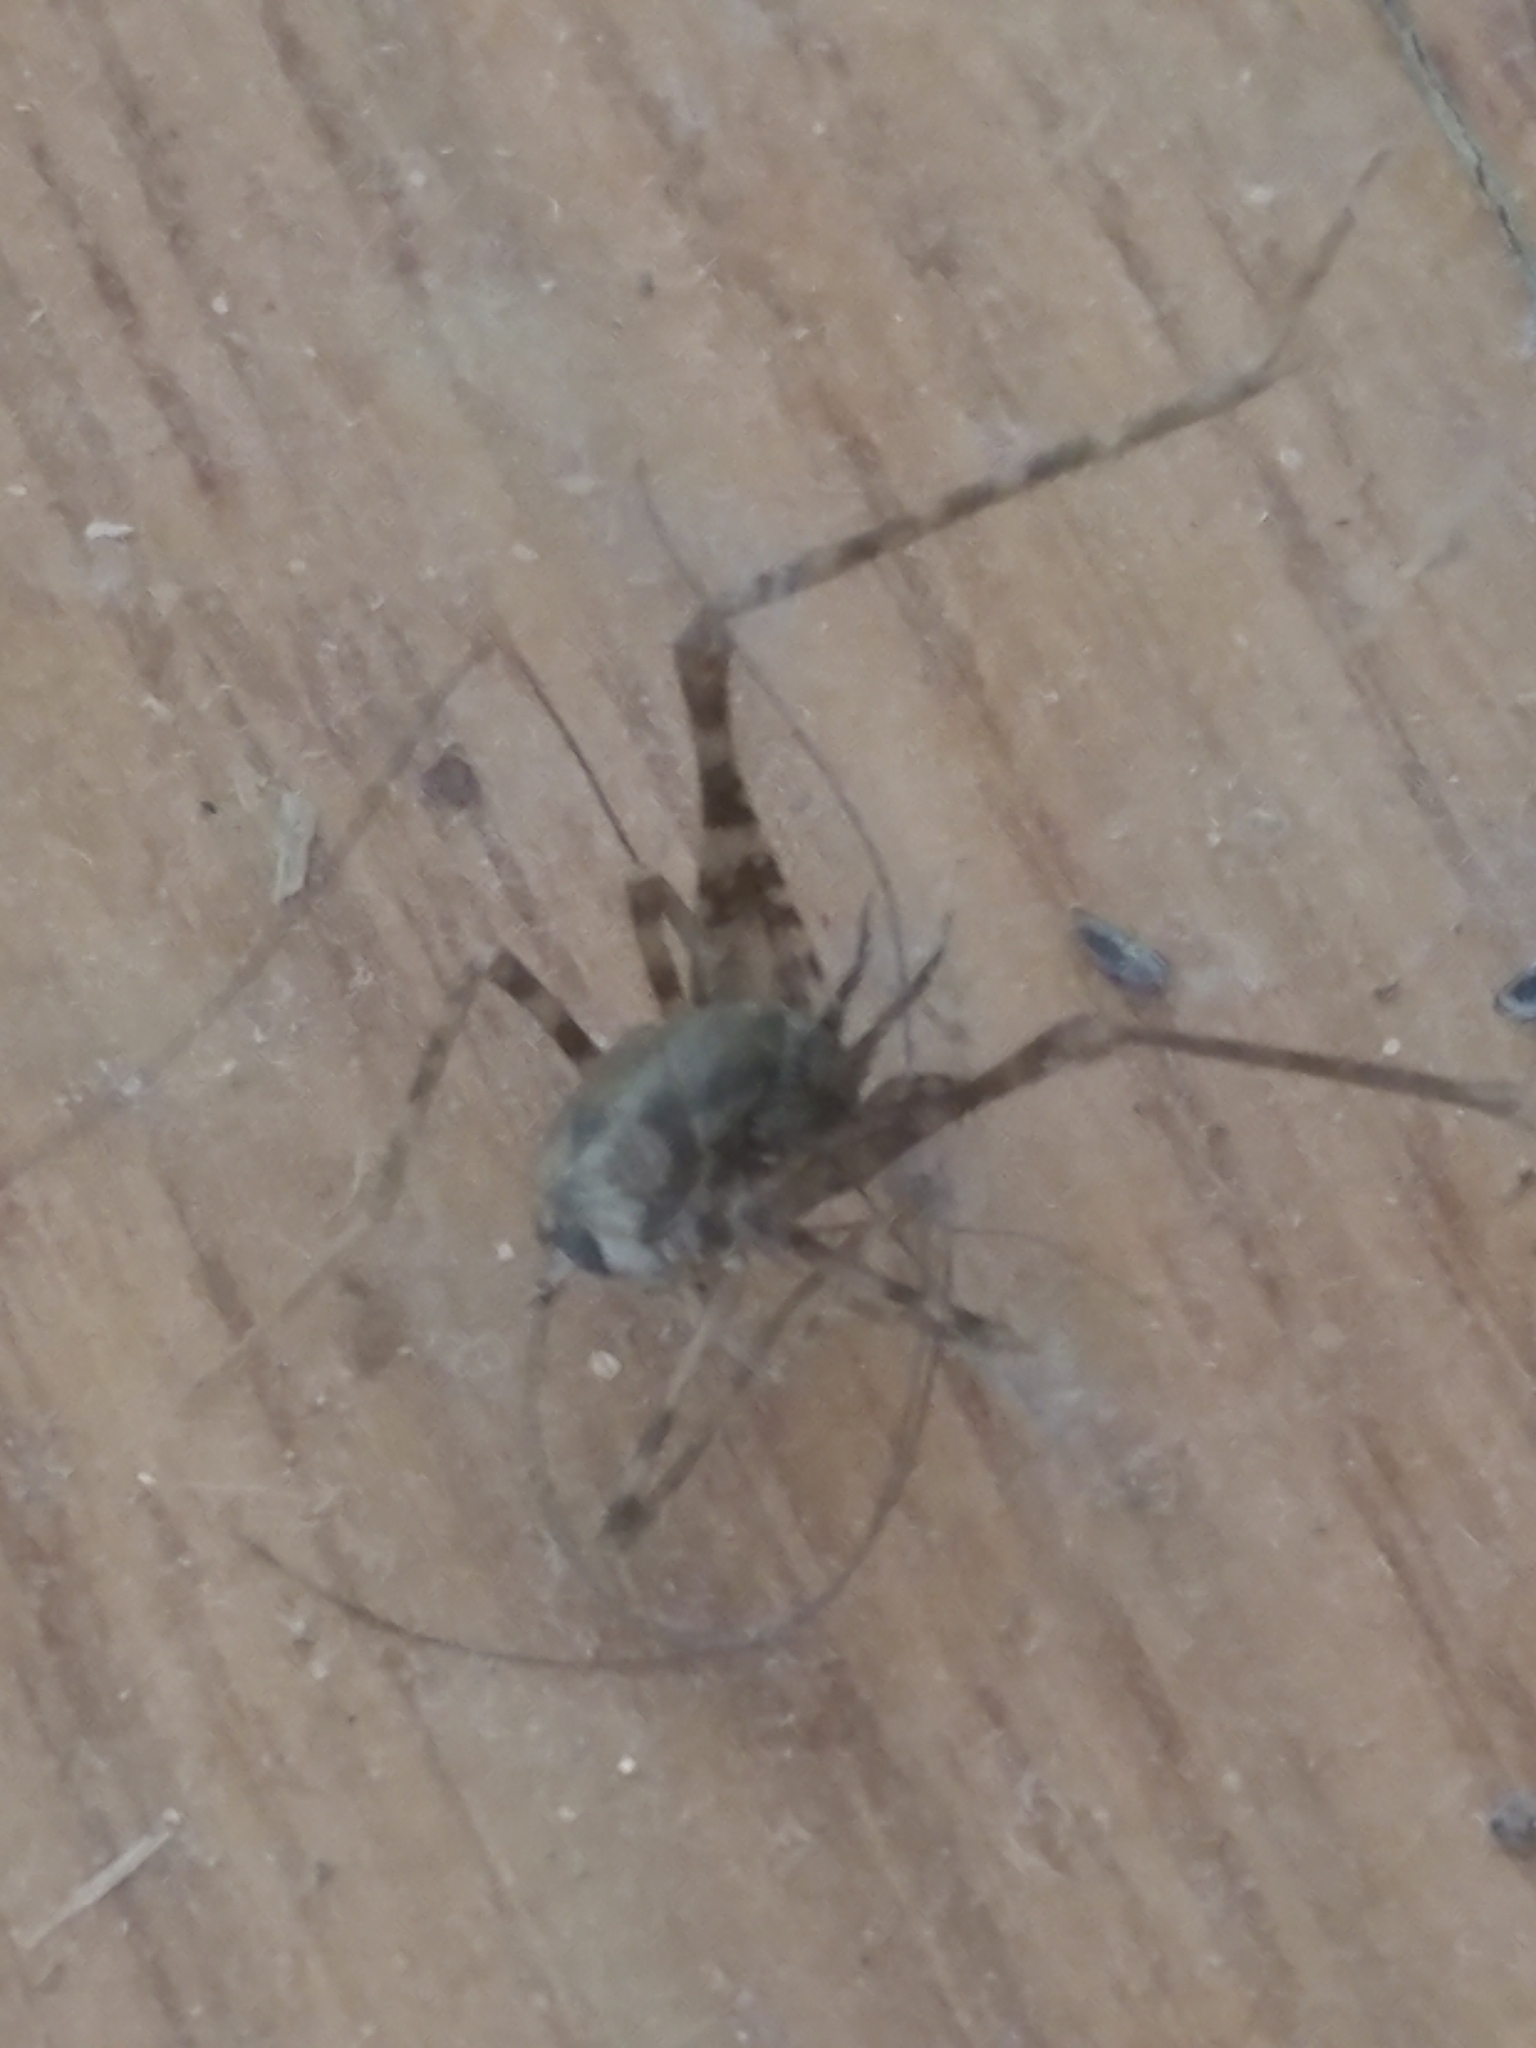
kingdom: Animalia
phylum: Arthropoda
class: Insecta
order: Orthoptera
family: Rhaphidophoridae
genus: Tachycines
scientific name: Tachycines asynamorus
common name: Greenhouse camel cricket
